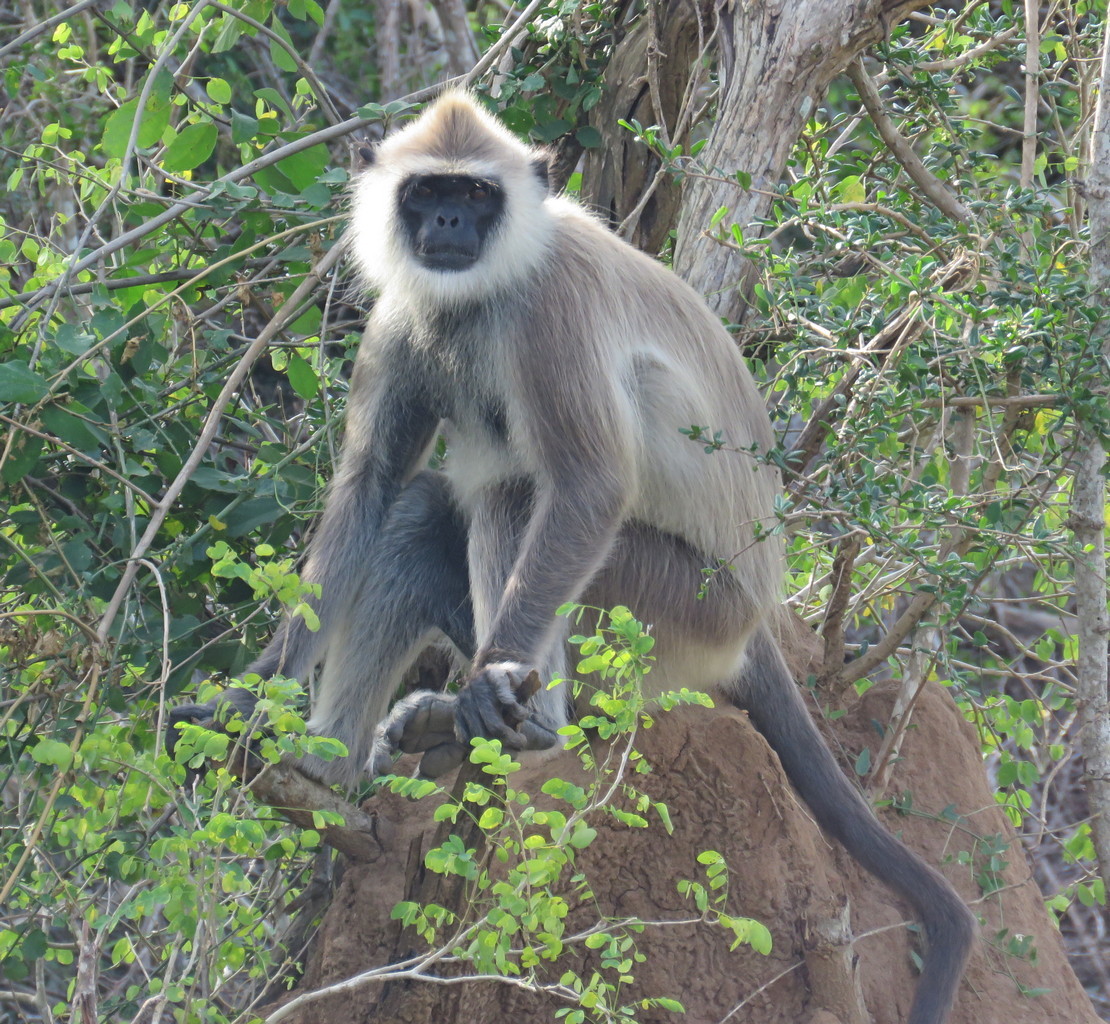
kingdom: Animalia
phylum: Chordata
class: Mammalia
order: Primates
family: Cercopithecidae
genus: Semnopithecus
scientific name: Semnopithecus priam
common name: Tufted gray langur
